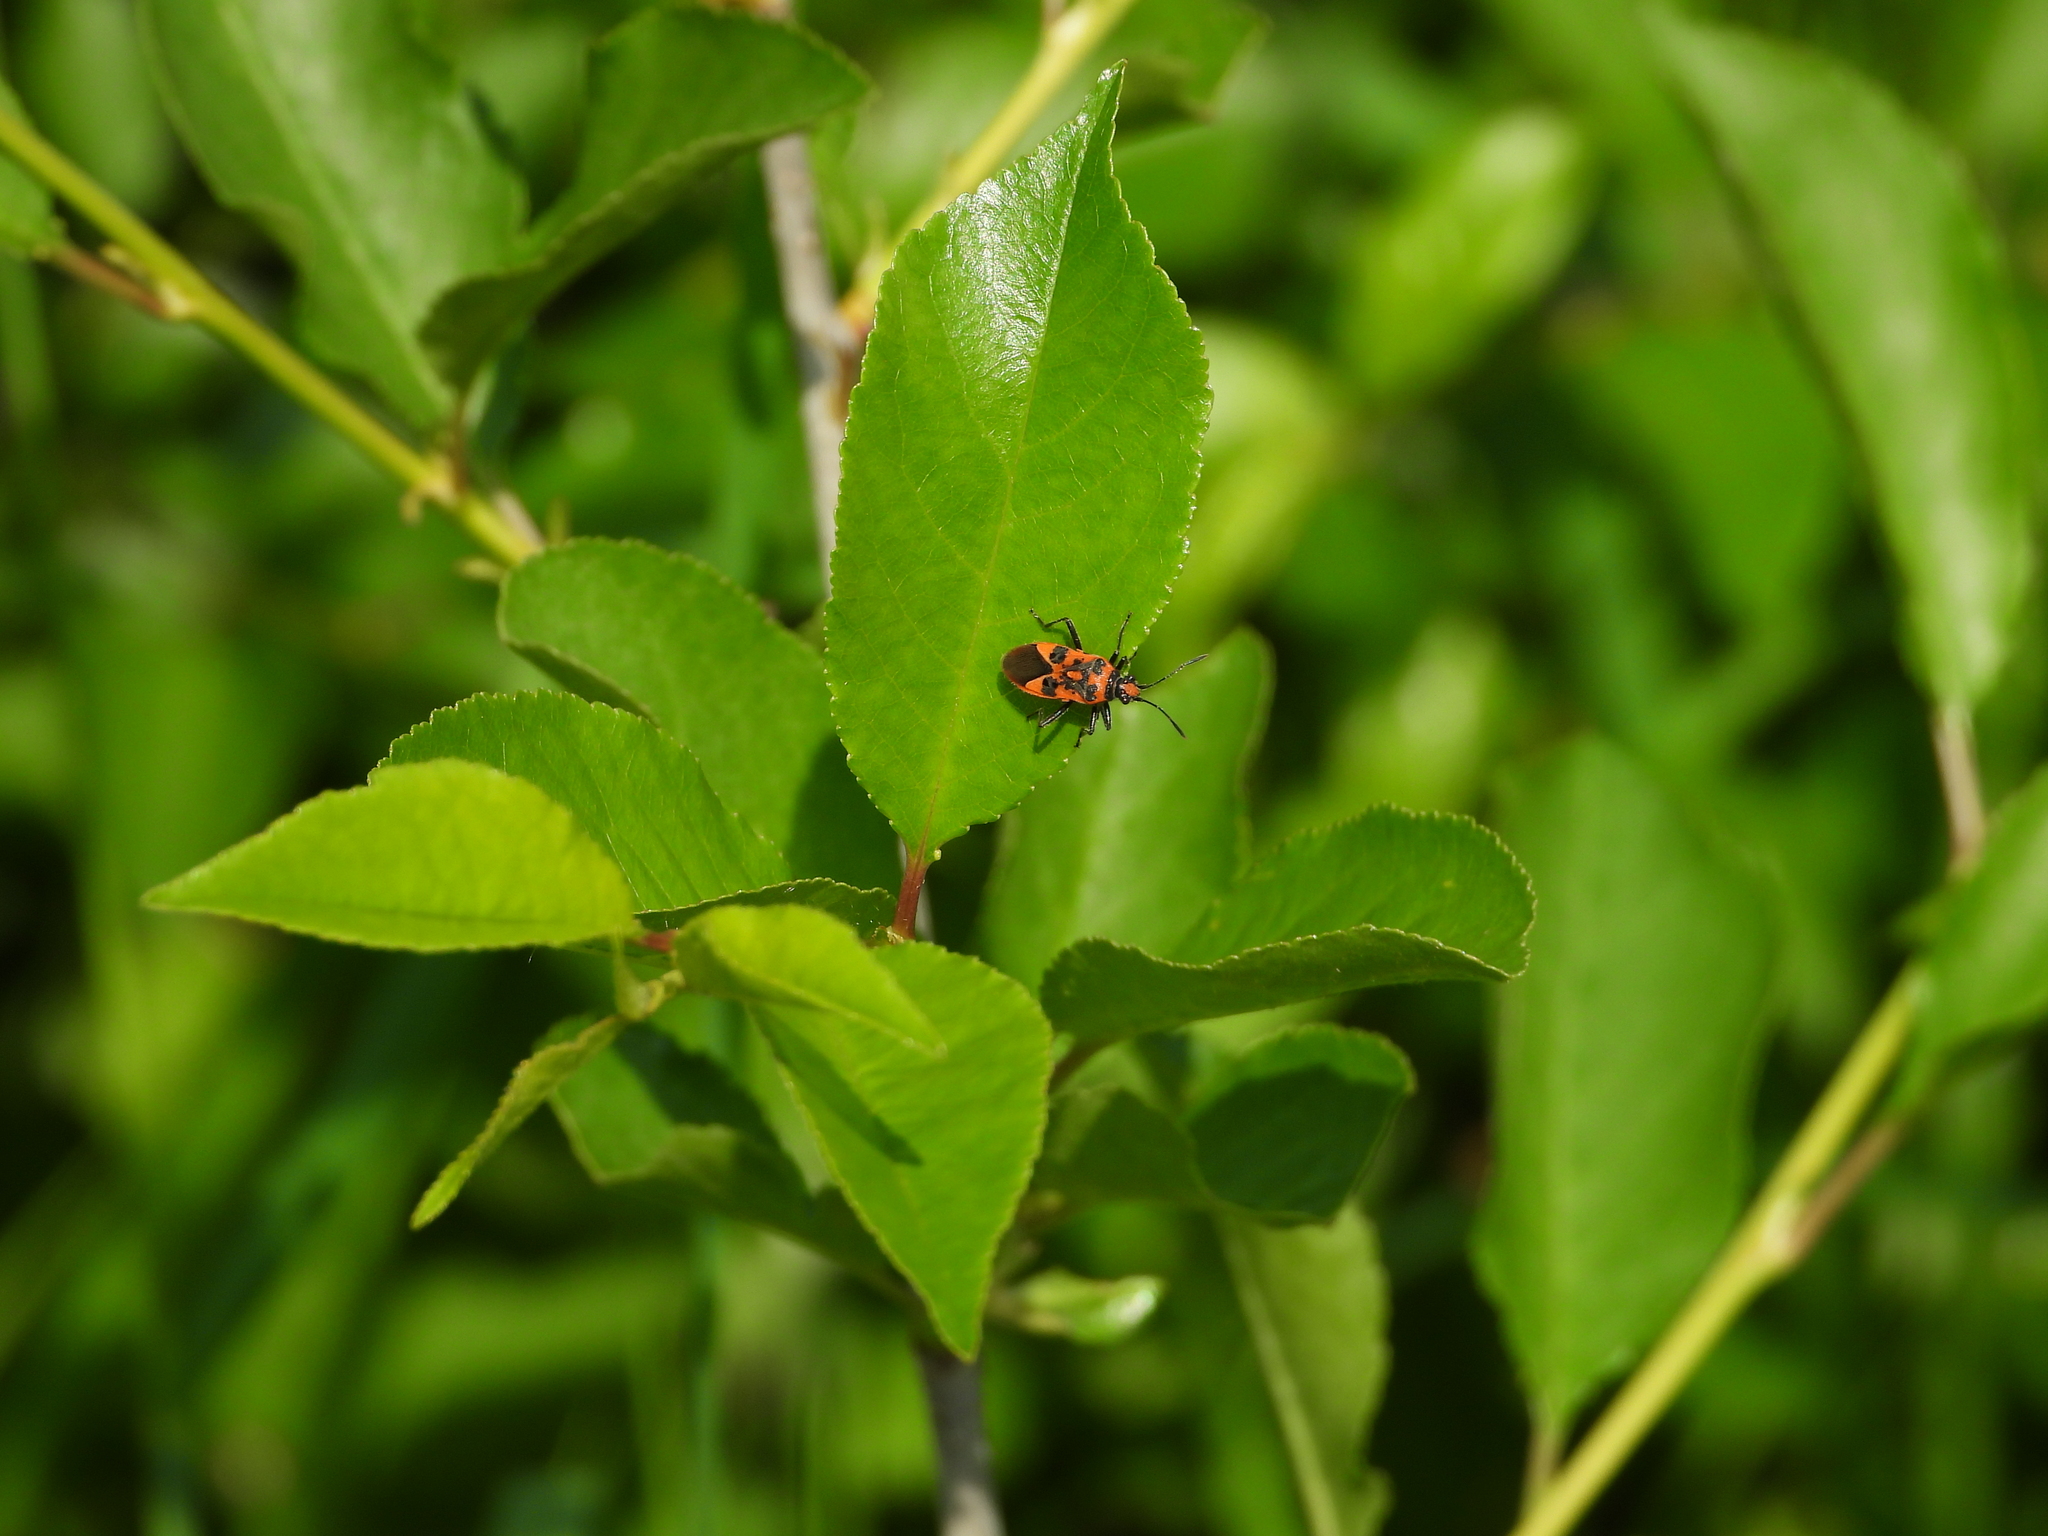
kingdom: Animalia
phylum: Arthropoda
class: Insecta
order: Hemiptera
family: Rhopalidae
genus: Corizus
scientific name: Corizus hyoscyami
